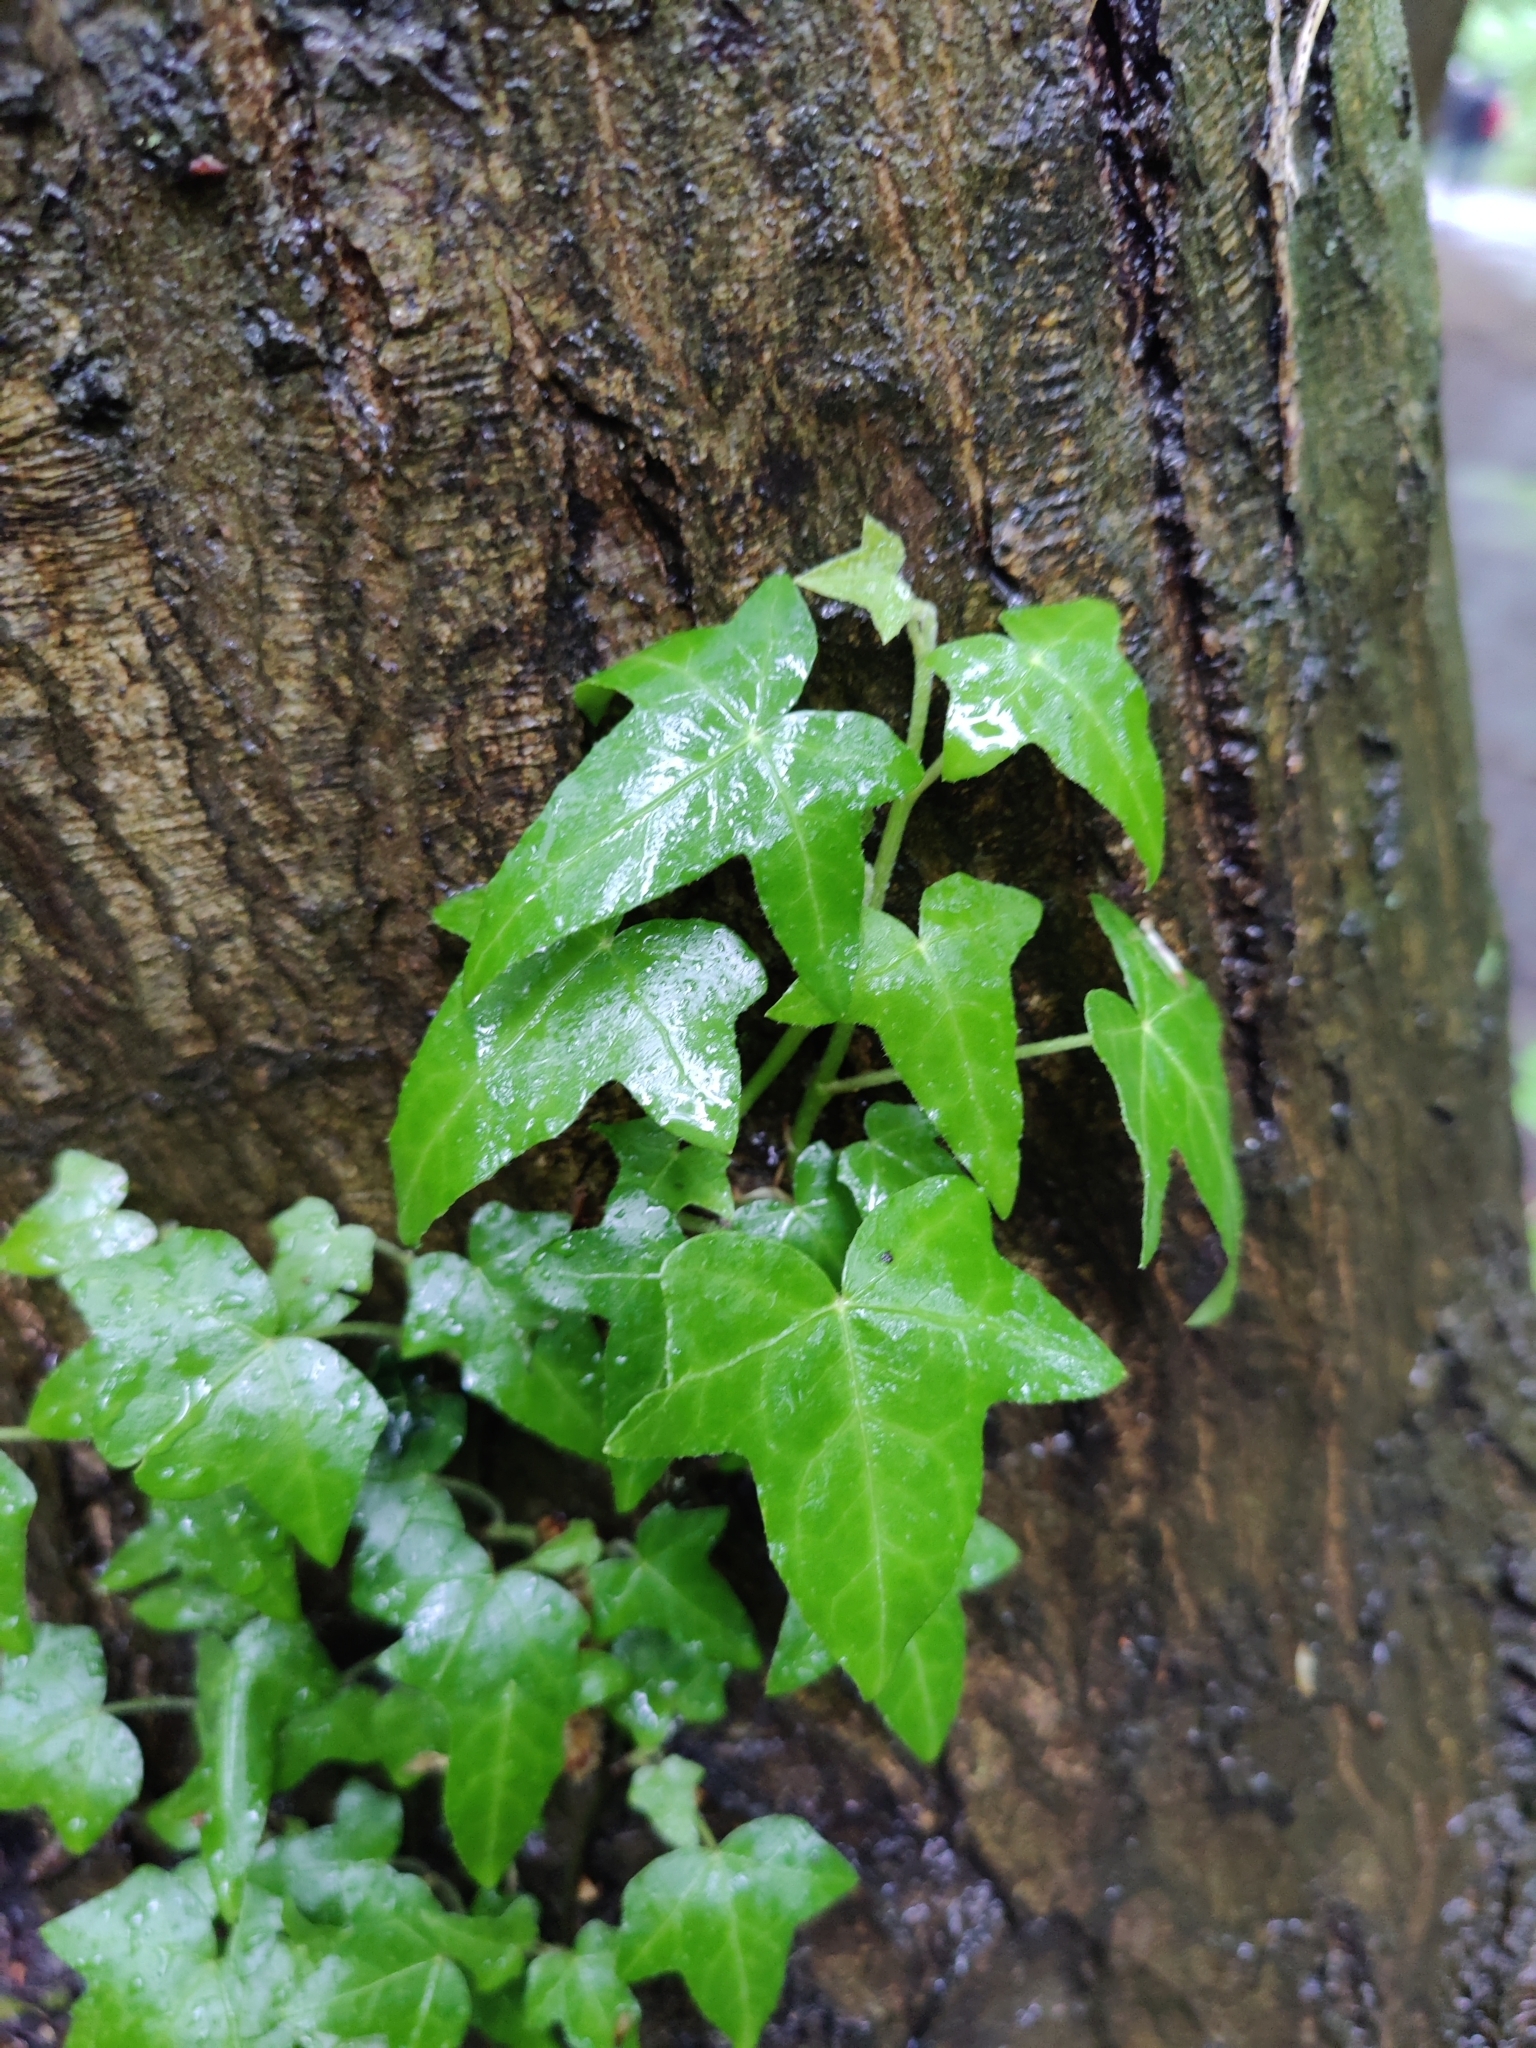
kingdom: Plantae
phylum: Tracheophyta
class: Magnoliopsida
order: Apiales
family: Araliaceae
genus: Hedera
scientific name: Hedera helix
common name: Ivy
